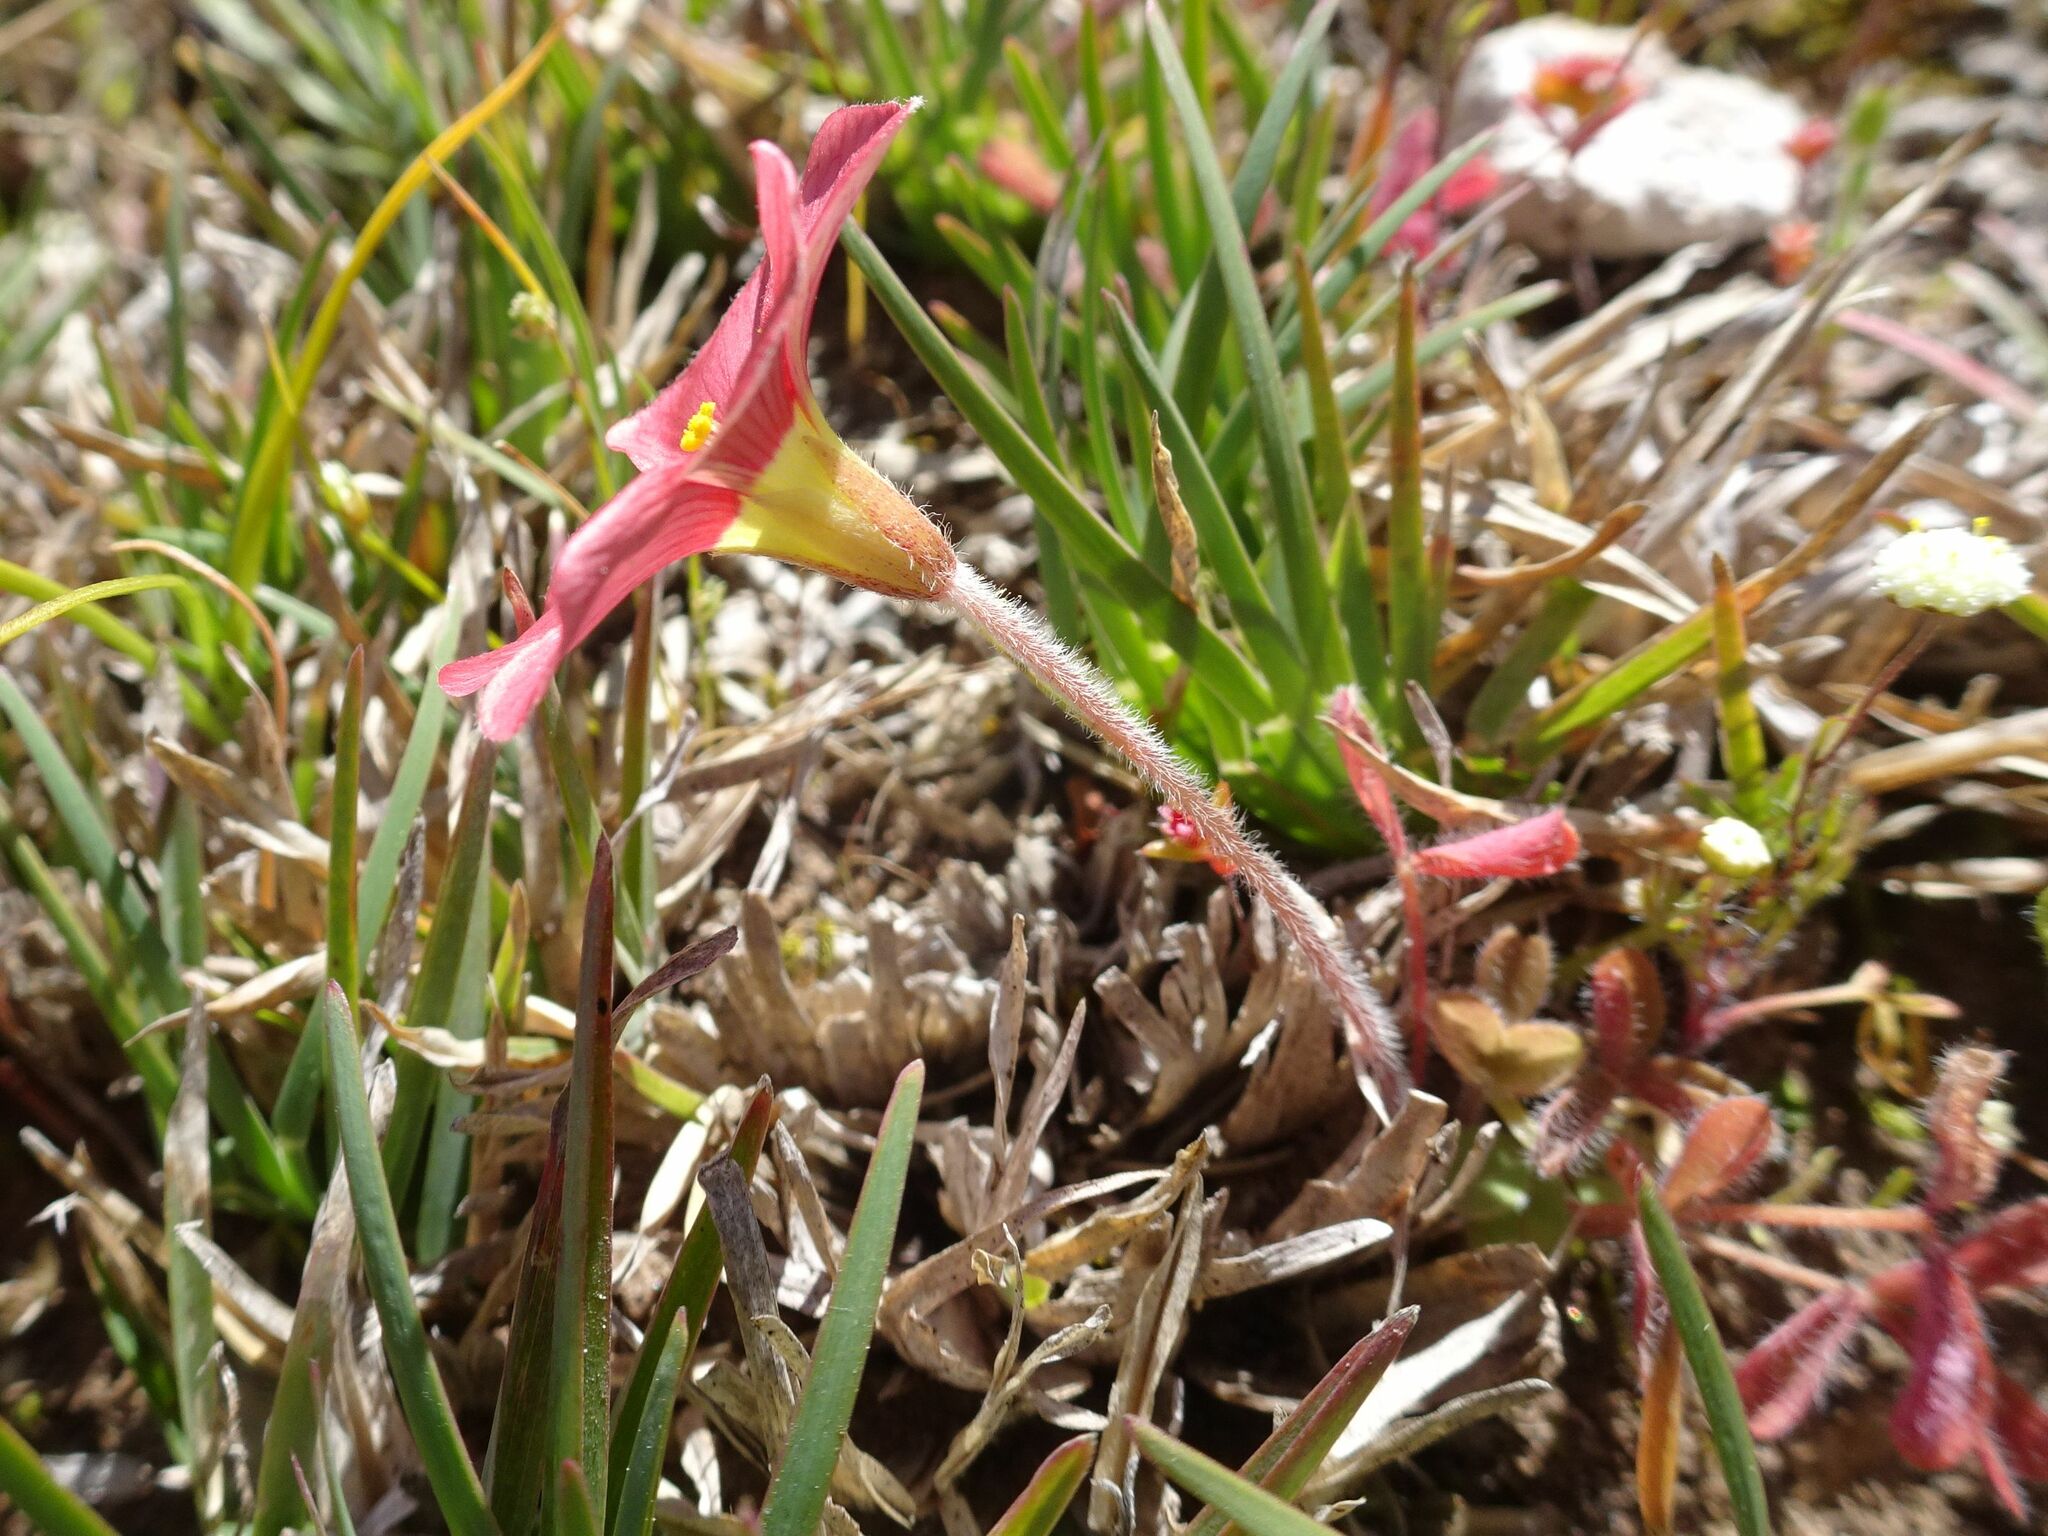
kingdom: Plantae
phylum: Tracheophyta
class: Magnoliopsida
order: Oxalidales
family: Oxalidaceae
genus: Oxalis
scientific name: Oxalis obtusa
